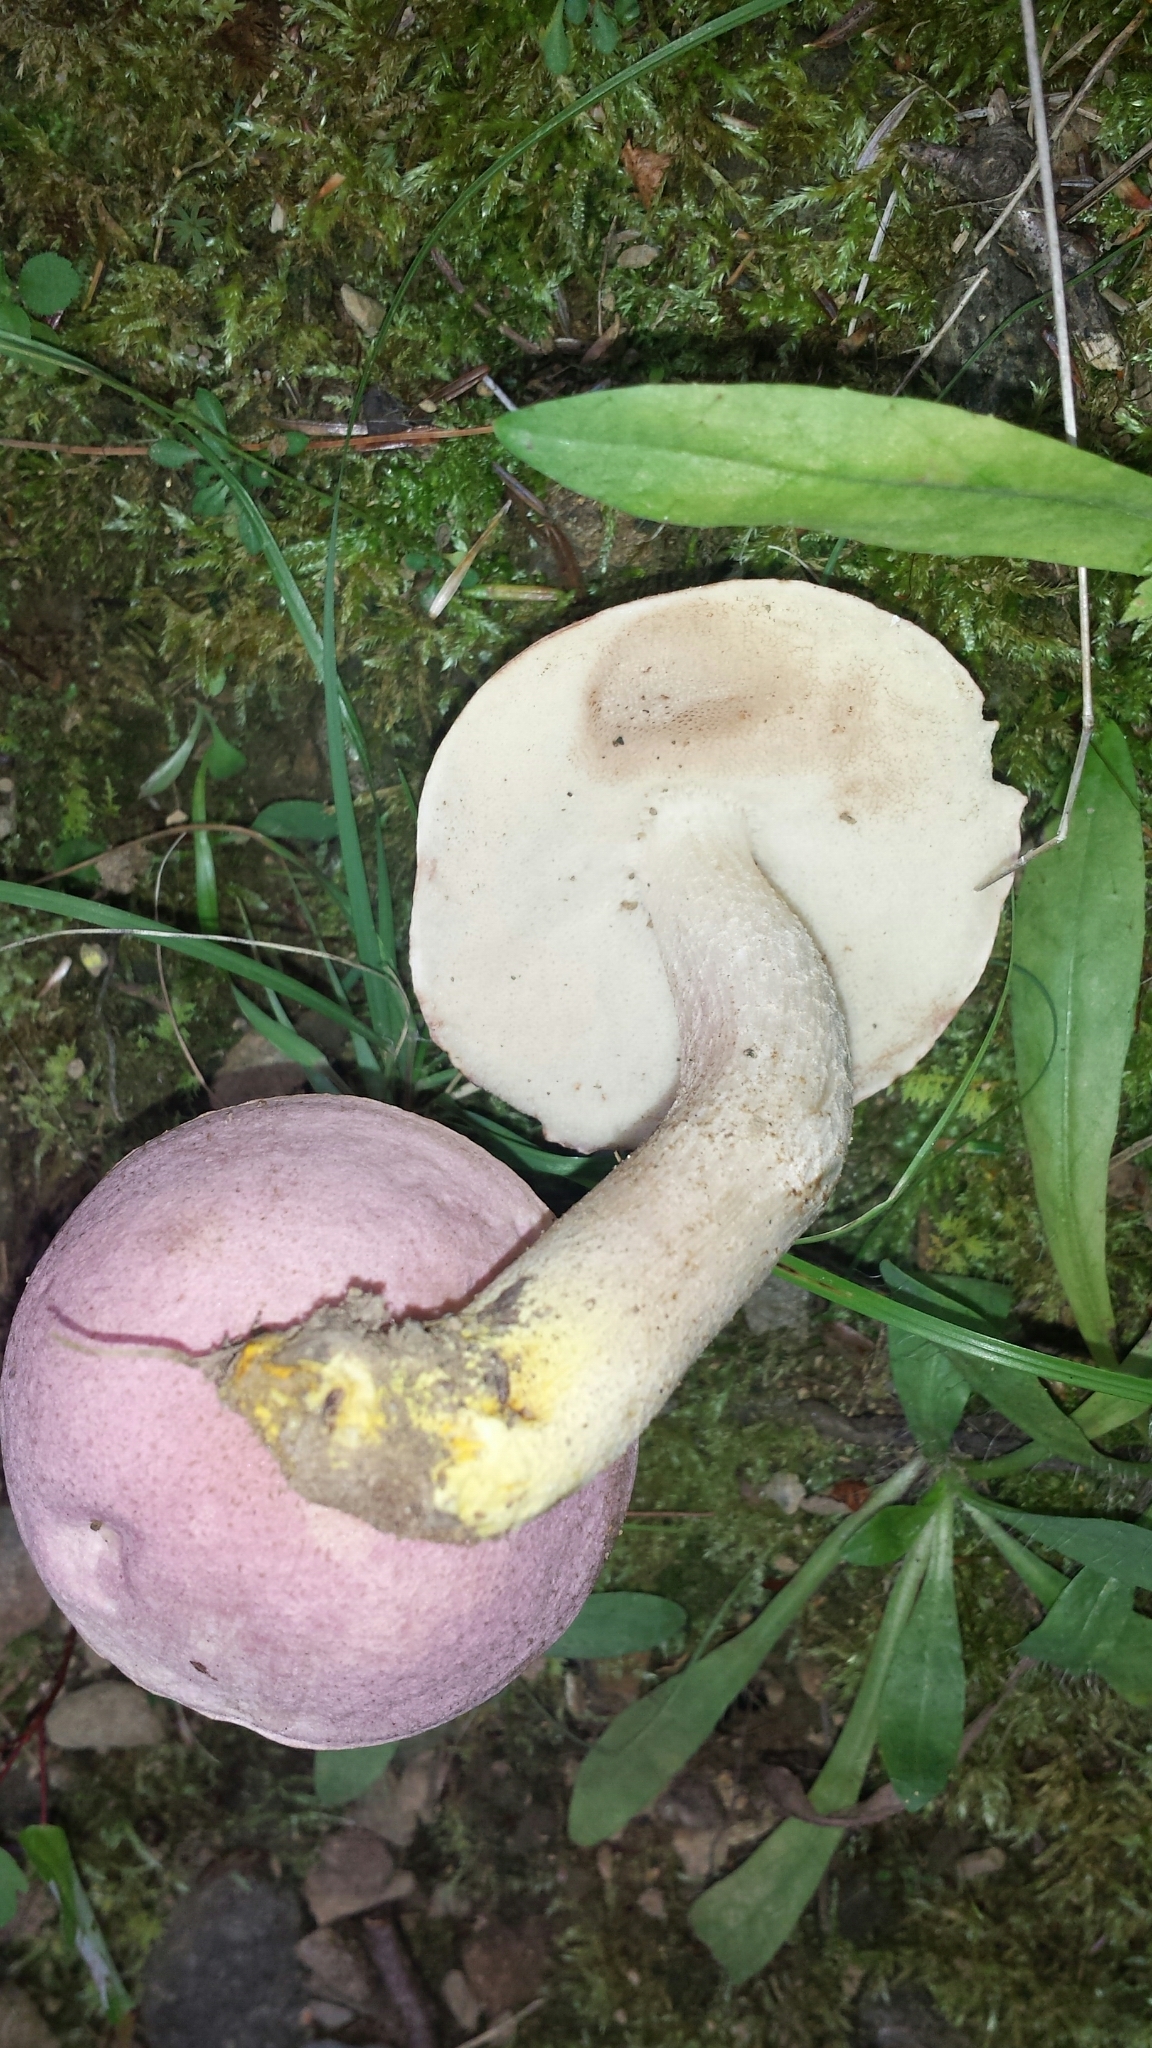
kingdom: Fungi
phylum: Basidiomycota
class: Agaricomycetes
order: Boletales
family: Boletaceae
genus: Harrya
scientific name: Harrya chromipes
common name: Chrome-footed bolete
